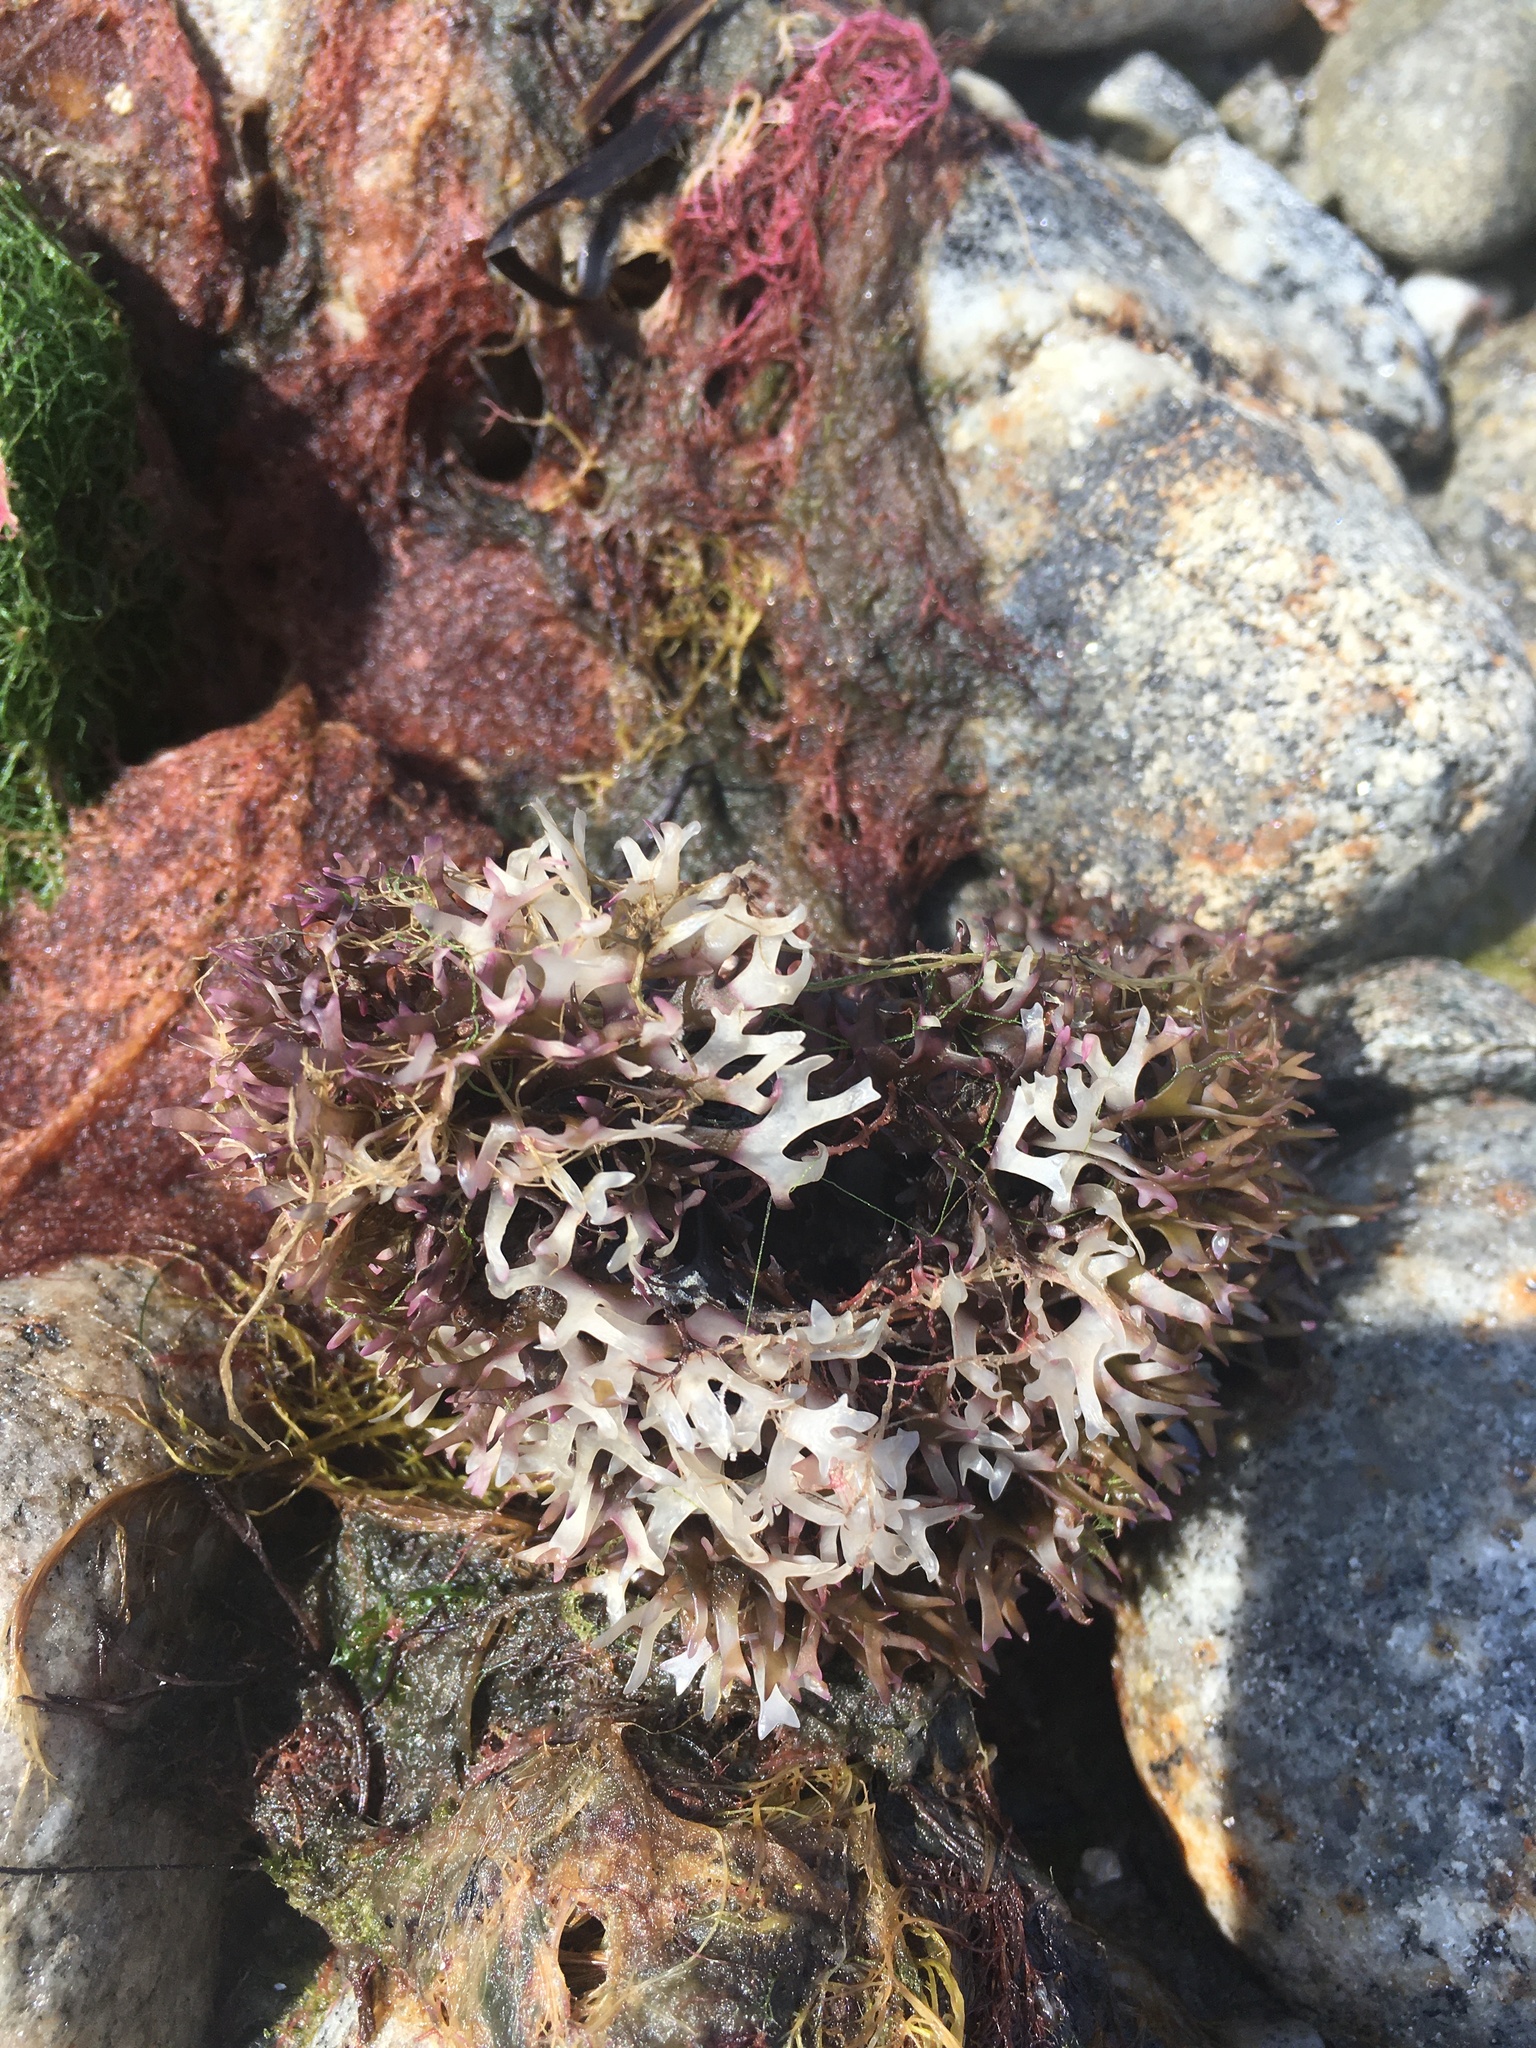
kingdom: Plantae
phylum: Rhodophyta
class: Florideophyceae
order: Gigartinales
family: Gigartinaceae
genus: Chondrus
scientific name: Chondrus crispus
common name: Carrageen
